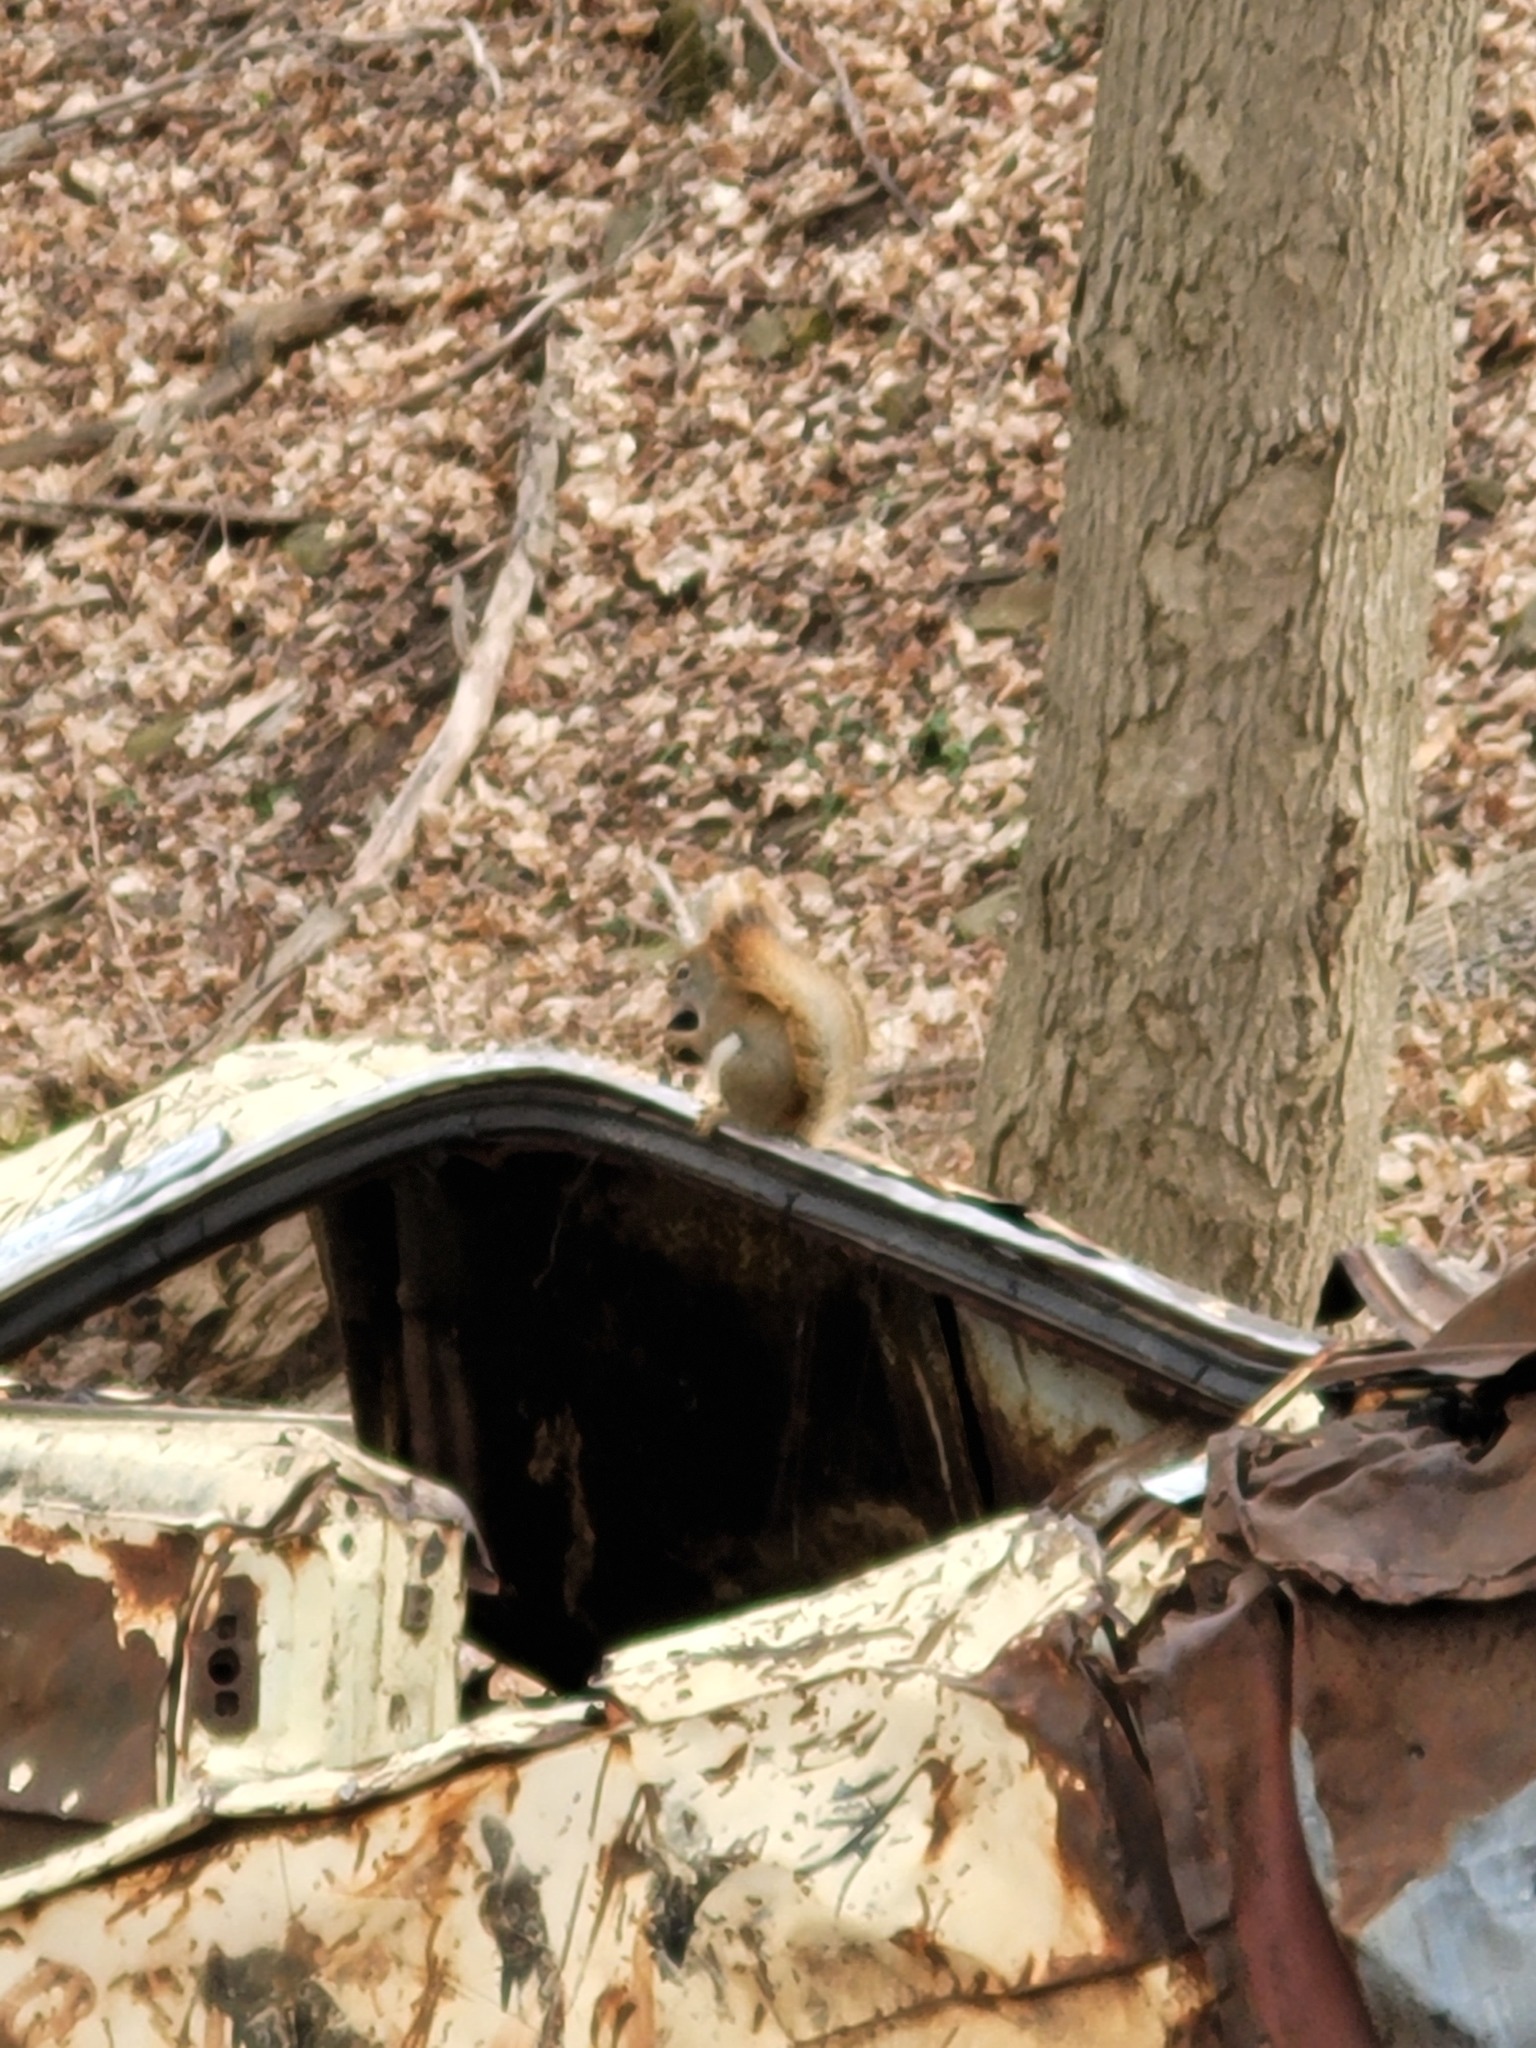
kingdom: Animalia
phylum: Chordata
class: Mammalia
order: Rodentia
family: Sciuridae
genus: Tamiasciurus
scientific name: Tamiasciurus hudsonicus
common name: Red squirrel
